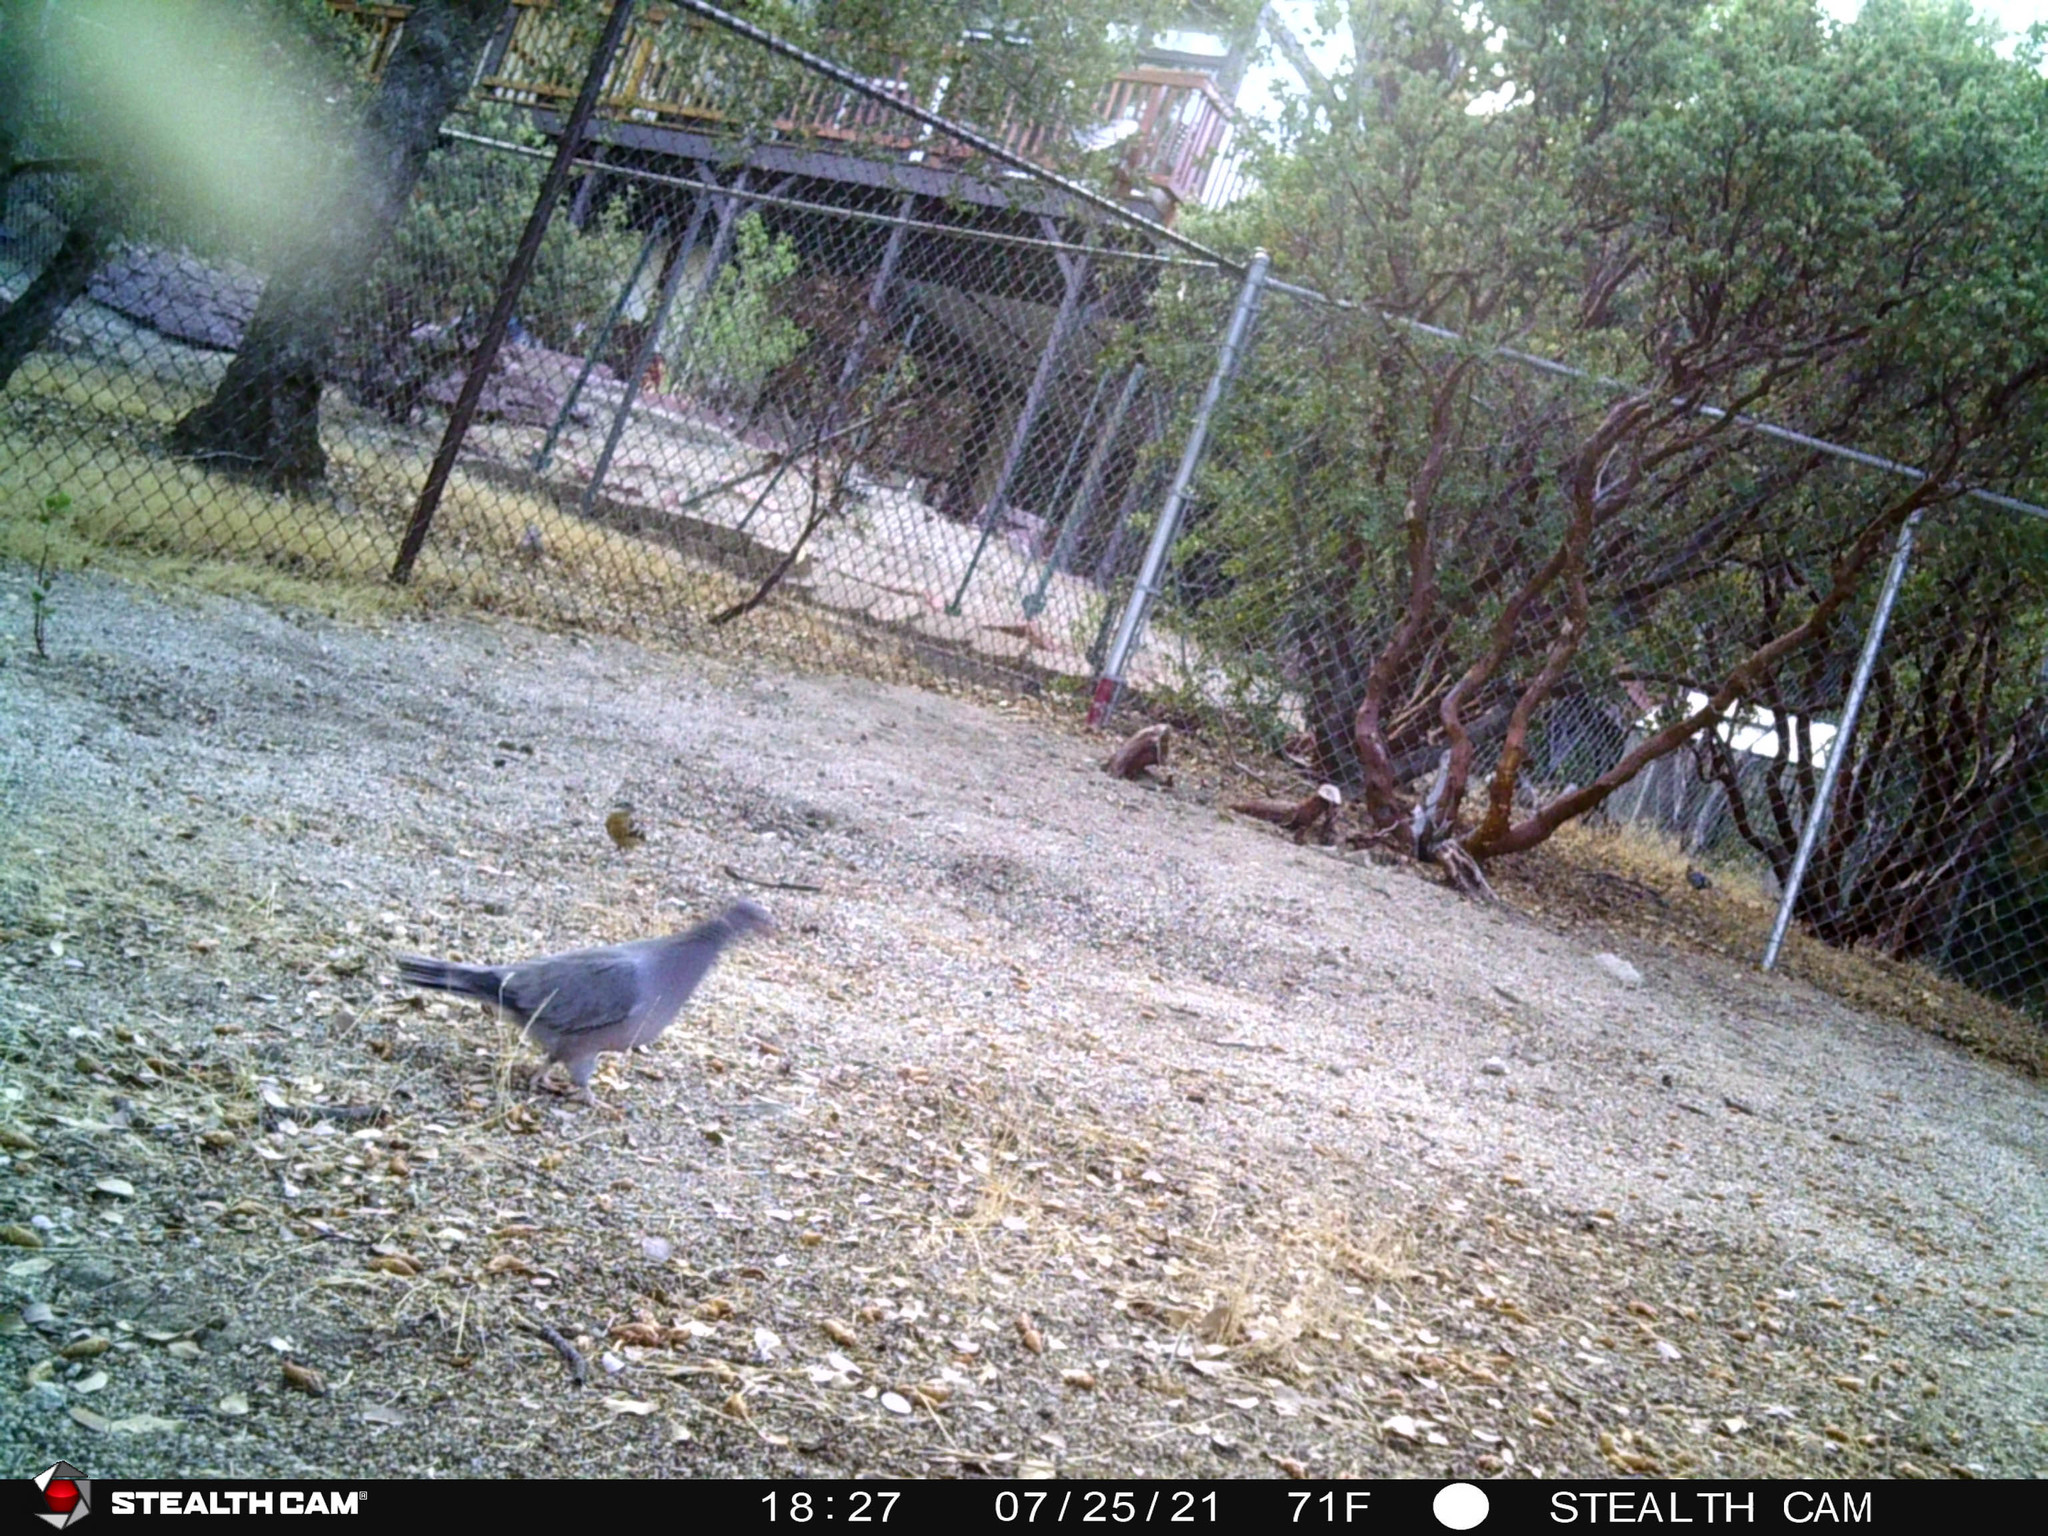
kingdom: Animalia
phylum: Chordata
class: Aves
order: Columbiformes
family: Columbidae
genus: Patagioenas
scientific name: Patagioenas fasciata
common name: Band-tailed pigeon
